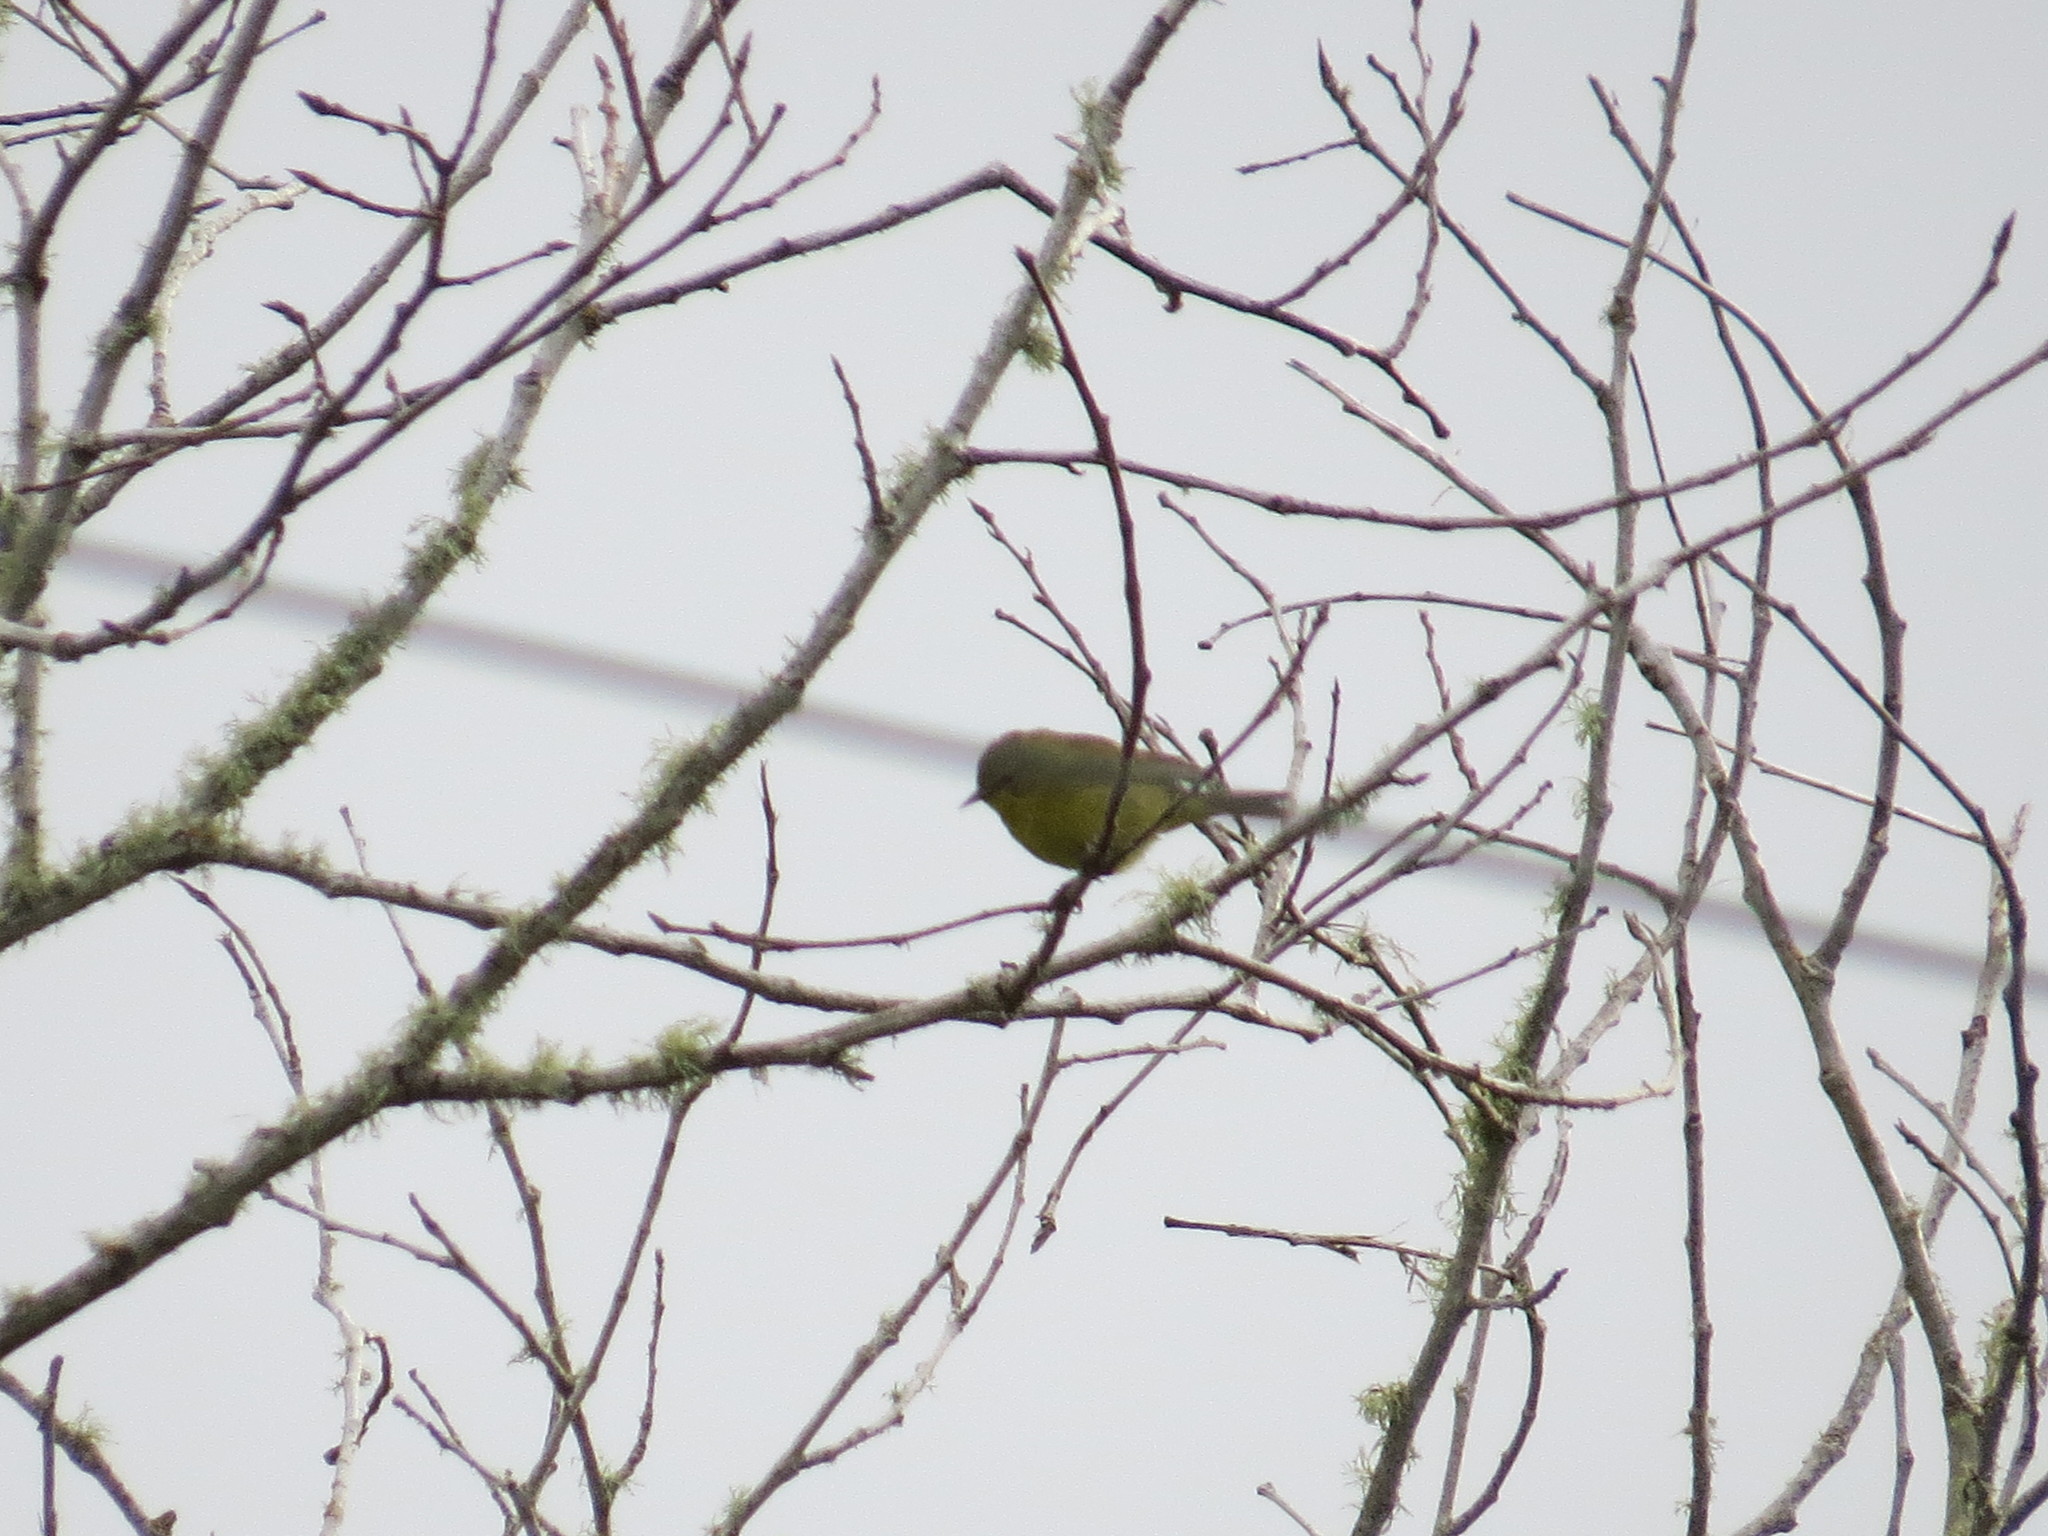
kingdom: Animalia
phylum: Chordata
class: Aves
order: Passeriformes
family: Parulidae
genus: Leiothlypis
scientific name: Leiothlypis celata
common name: Orange-crowned warbler
